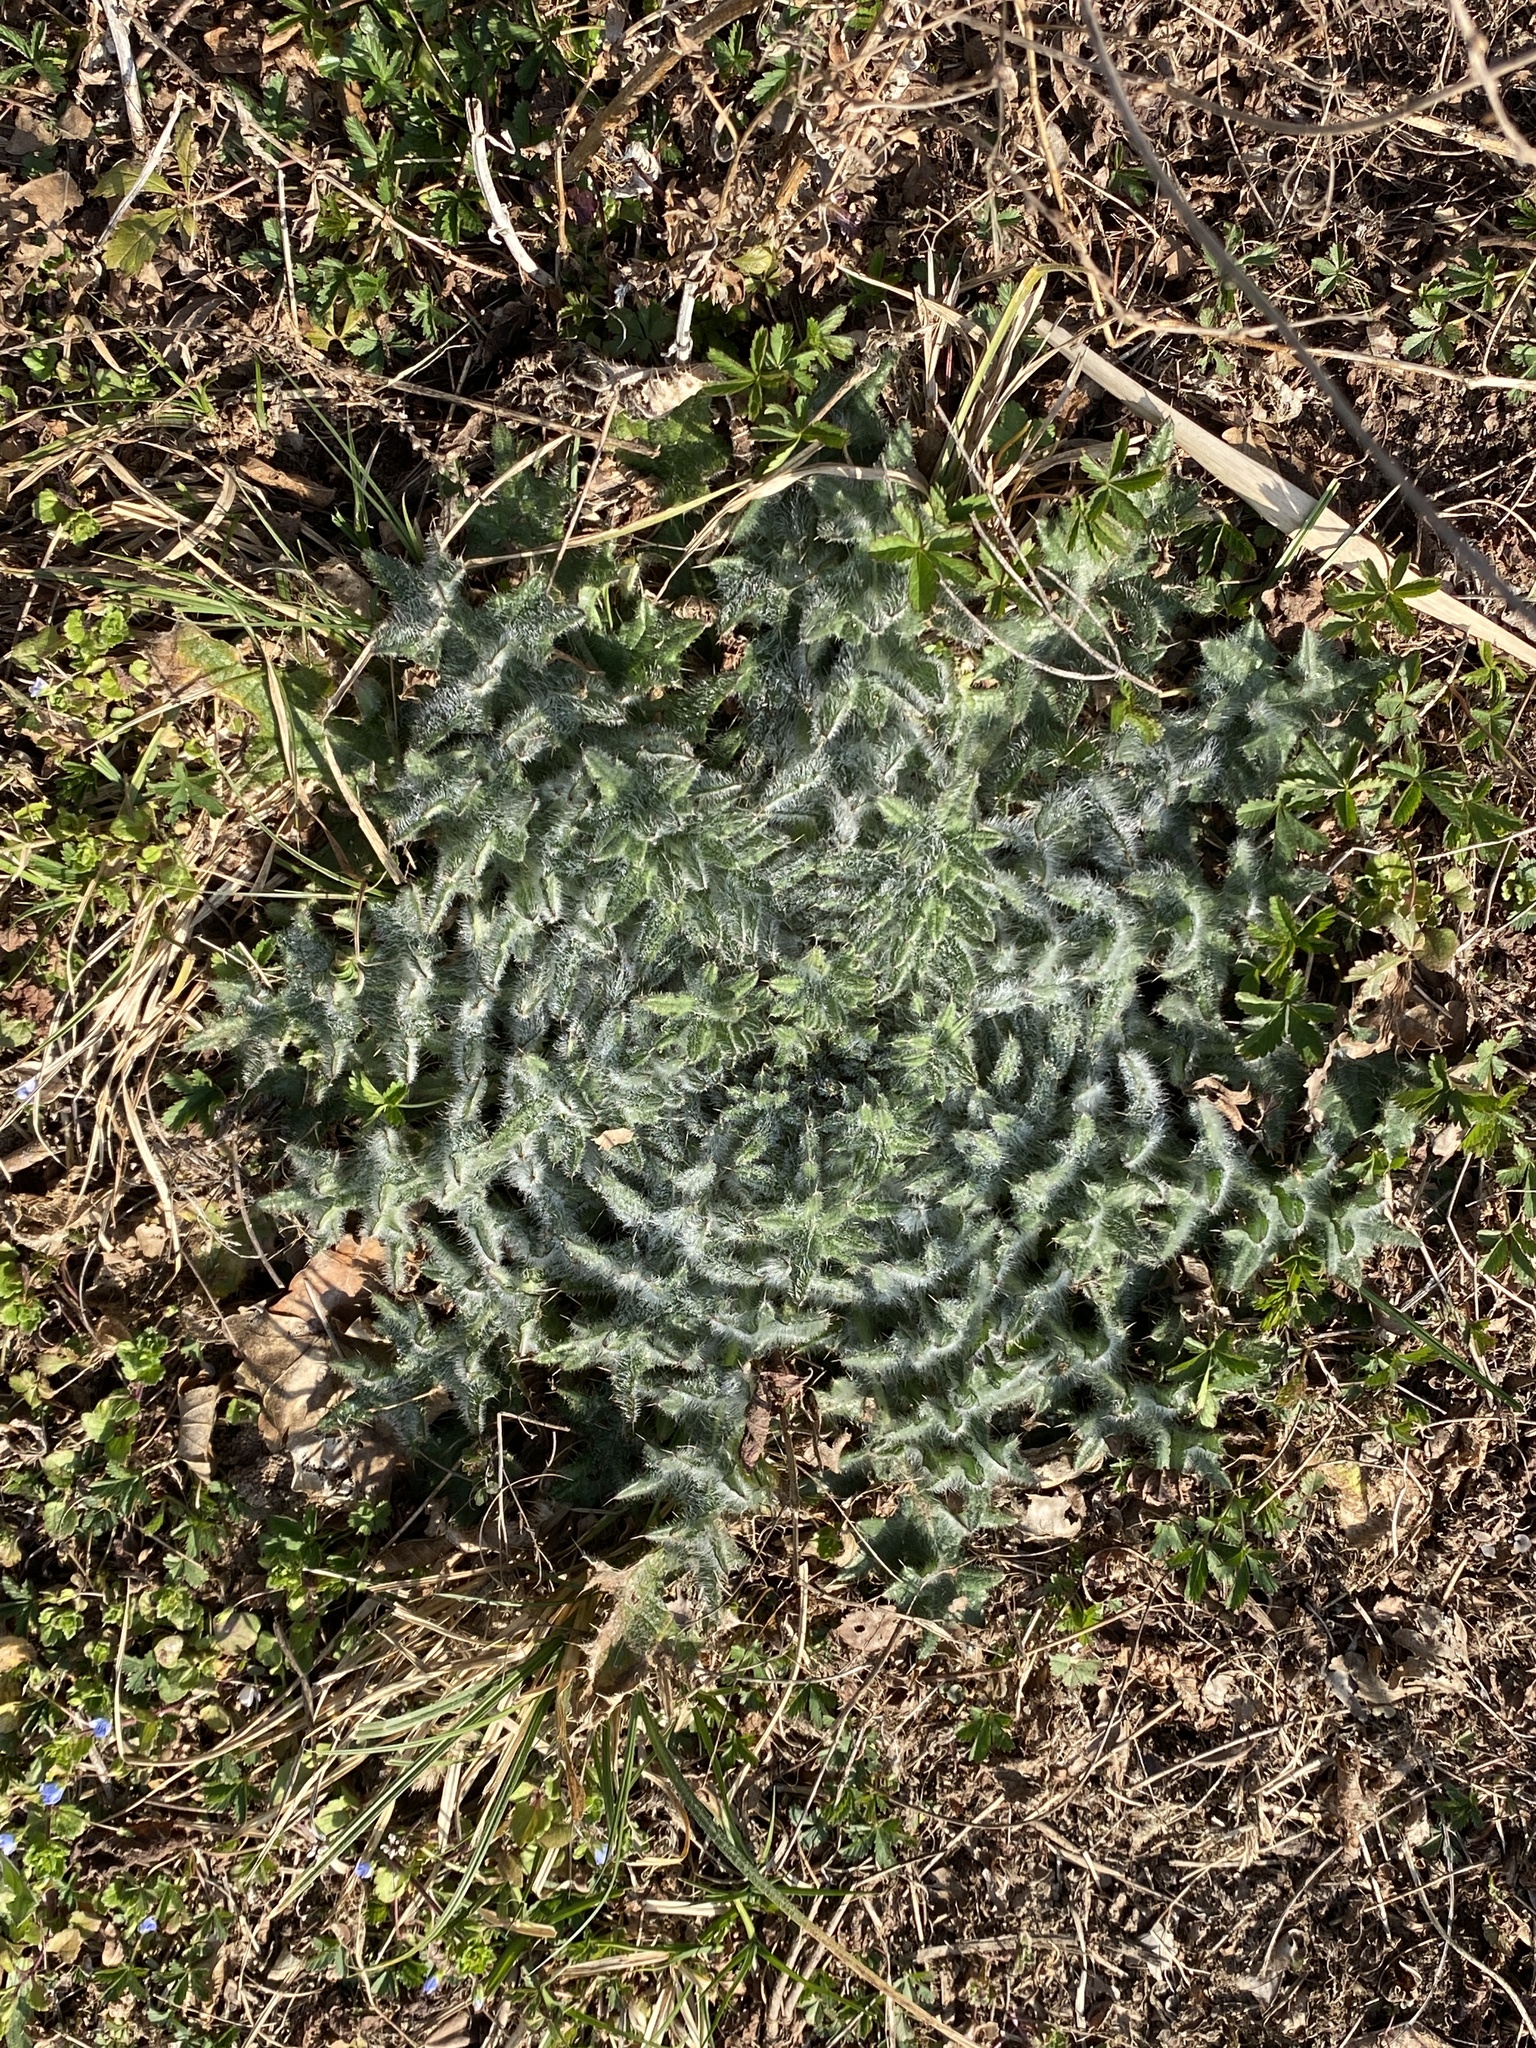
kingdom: Plantae
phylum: Tracheophyta
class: Magnoliopsida
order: Asterales
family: Asteraceae
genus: Cirsium
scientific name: Cirsium vulgare
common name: Bull thistle
